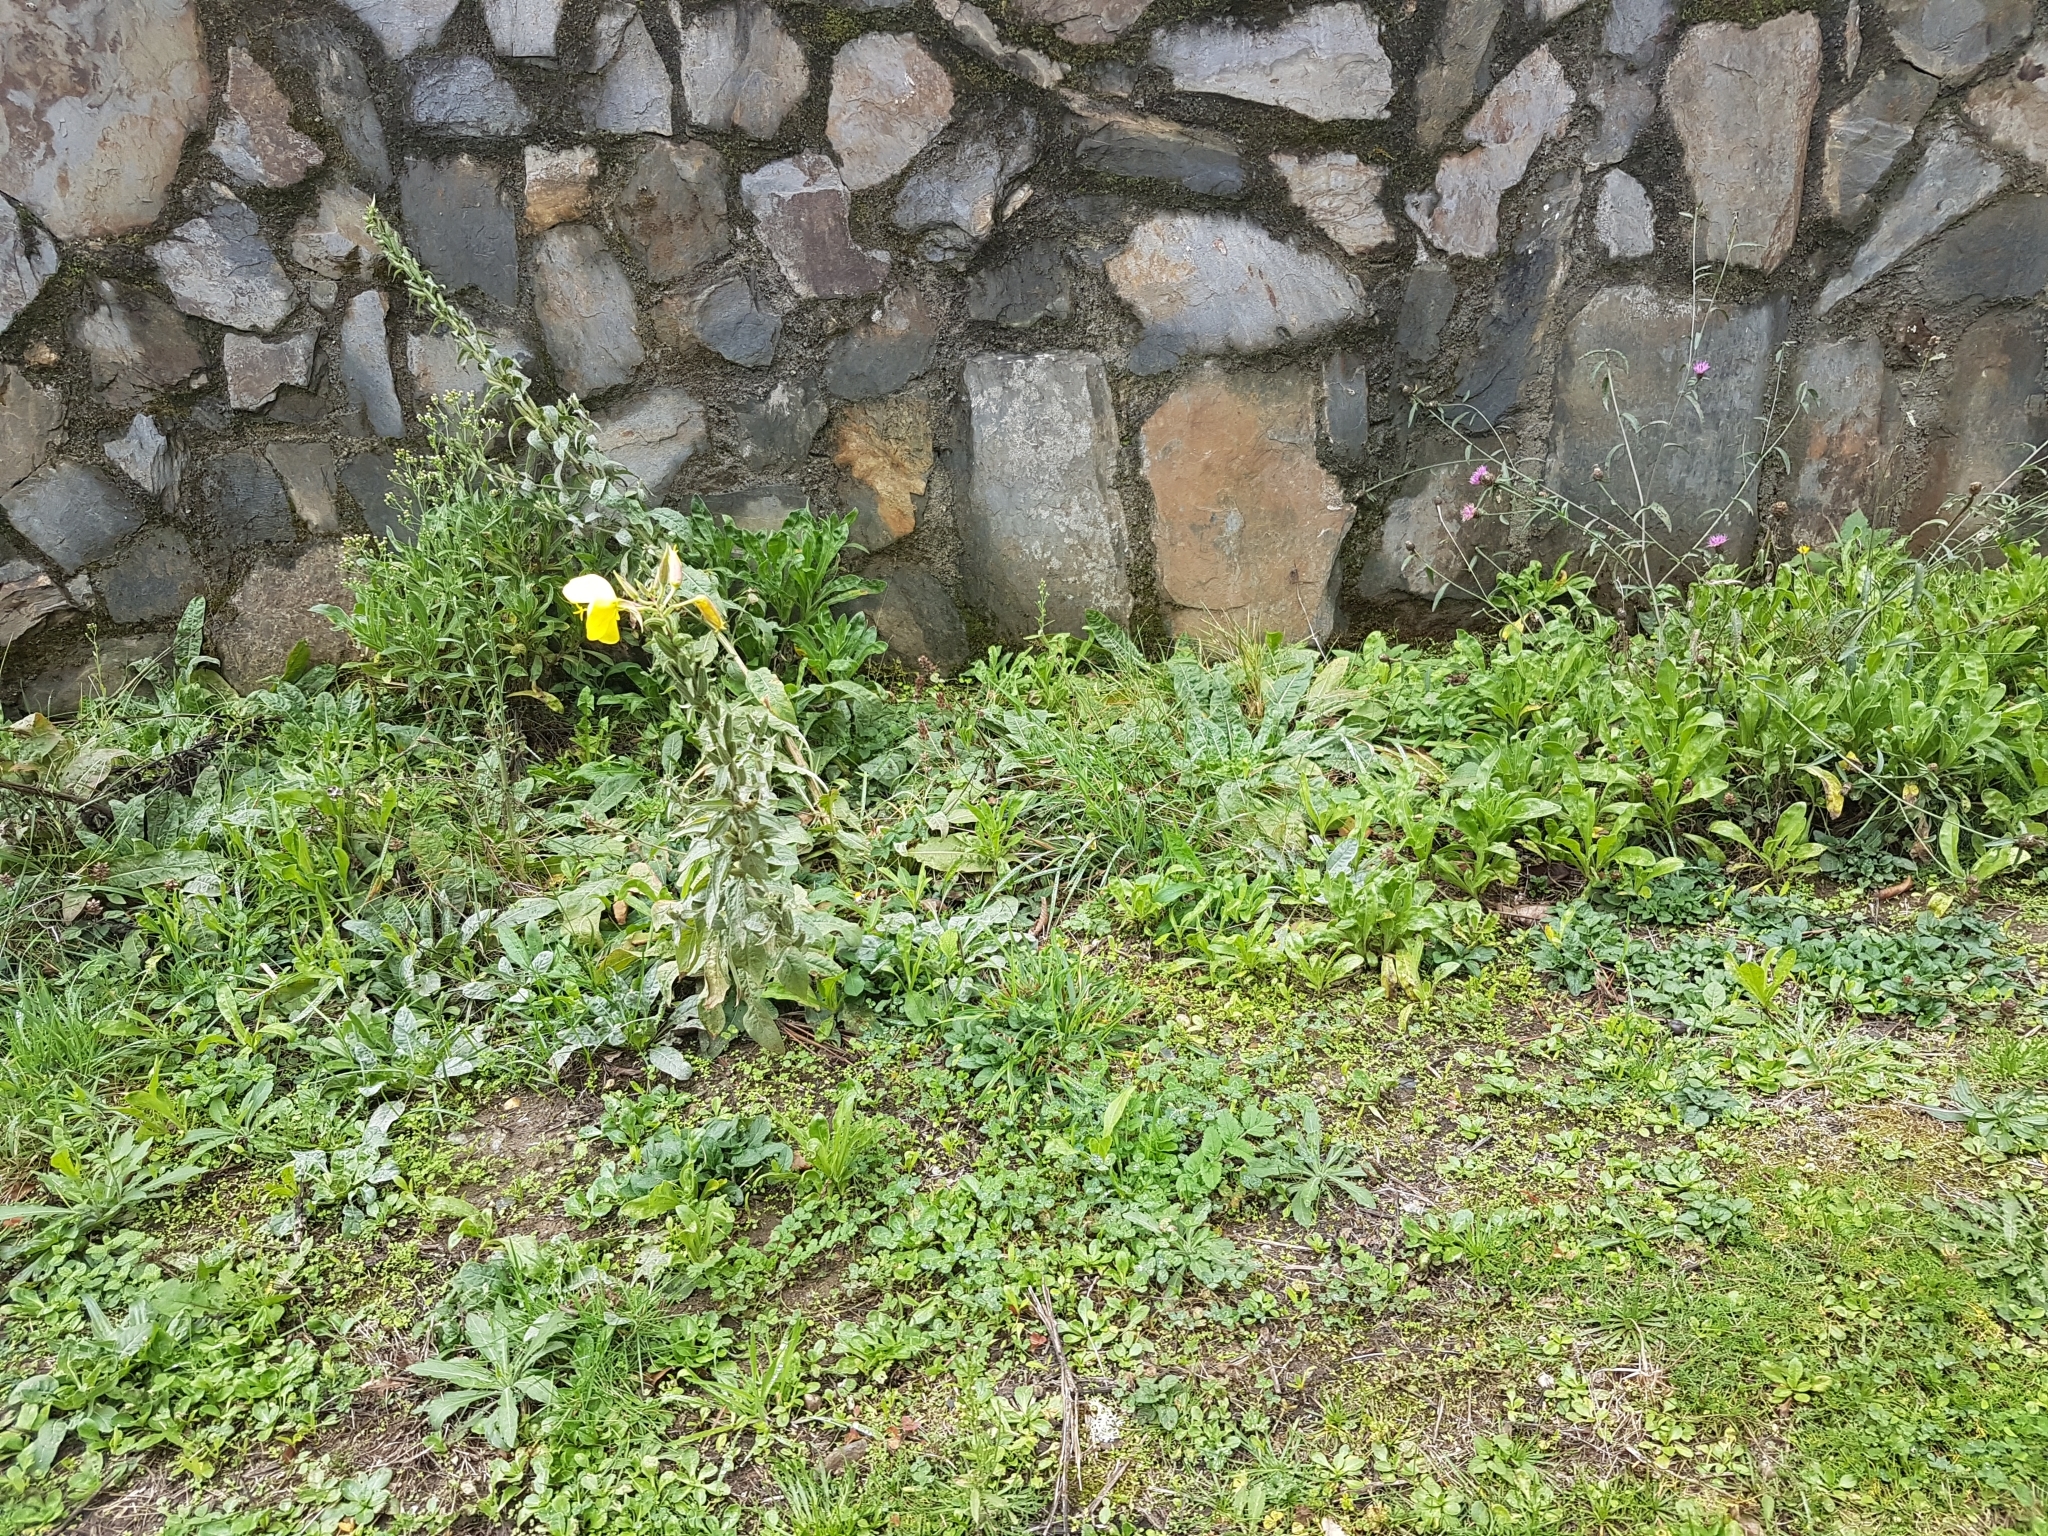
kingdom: Plantae
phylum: Tracheophyta
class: Magnoliopsida
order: Myrtales
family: Onagraceae
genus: Oenothera
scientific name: Oenothera glazioviana
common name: Large-flowered evening-primrose
